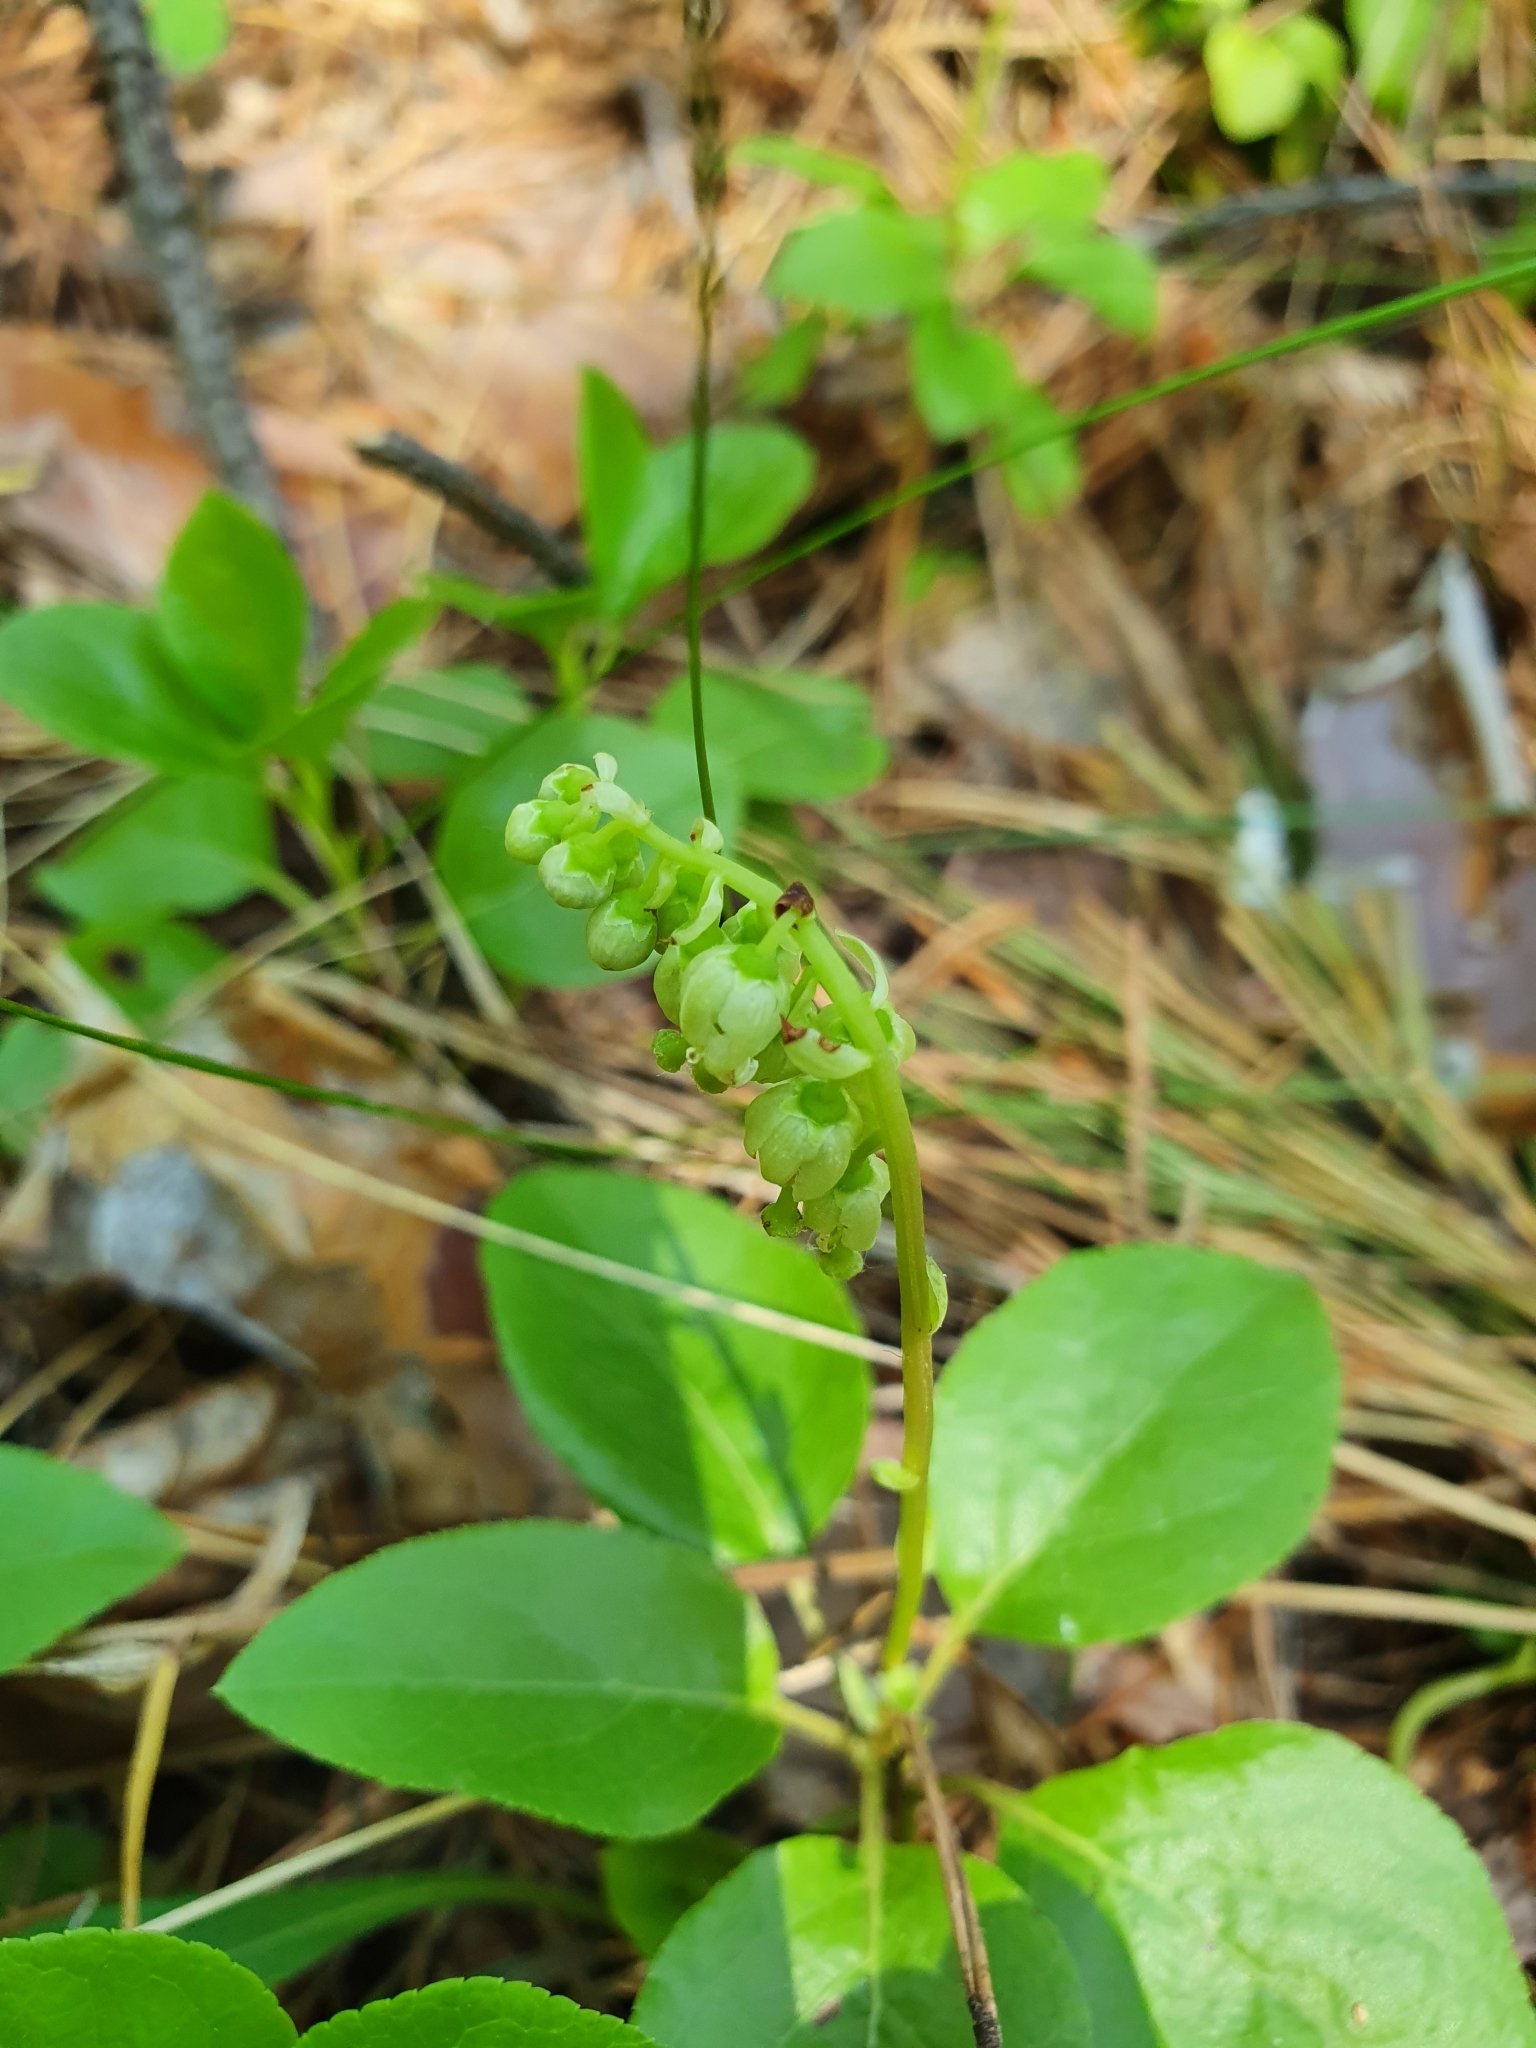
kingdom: Plantae
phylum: Tracheophyta
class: Magnoliopsida
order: Ericales
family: Ericaceae
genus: Orthilia
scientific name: Orthilia secunda
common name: One-sided orthilia
